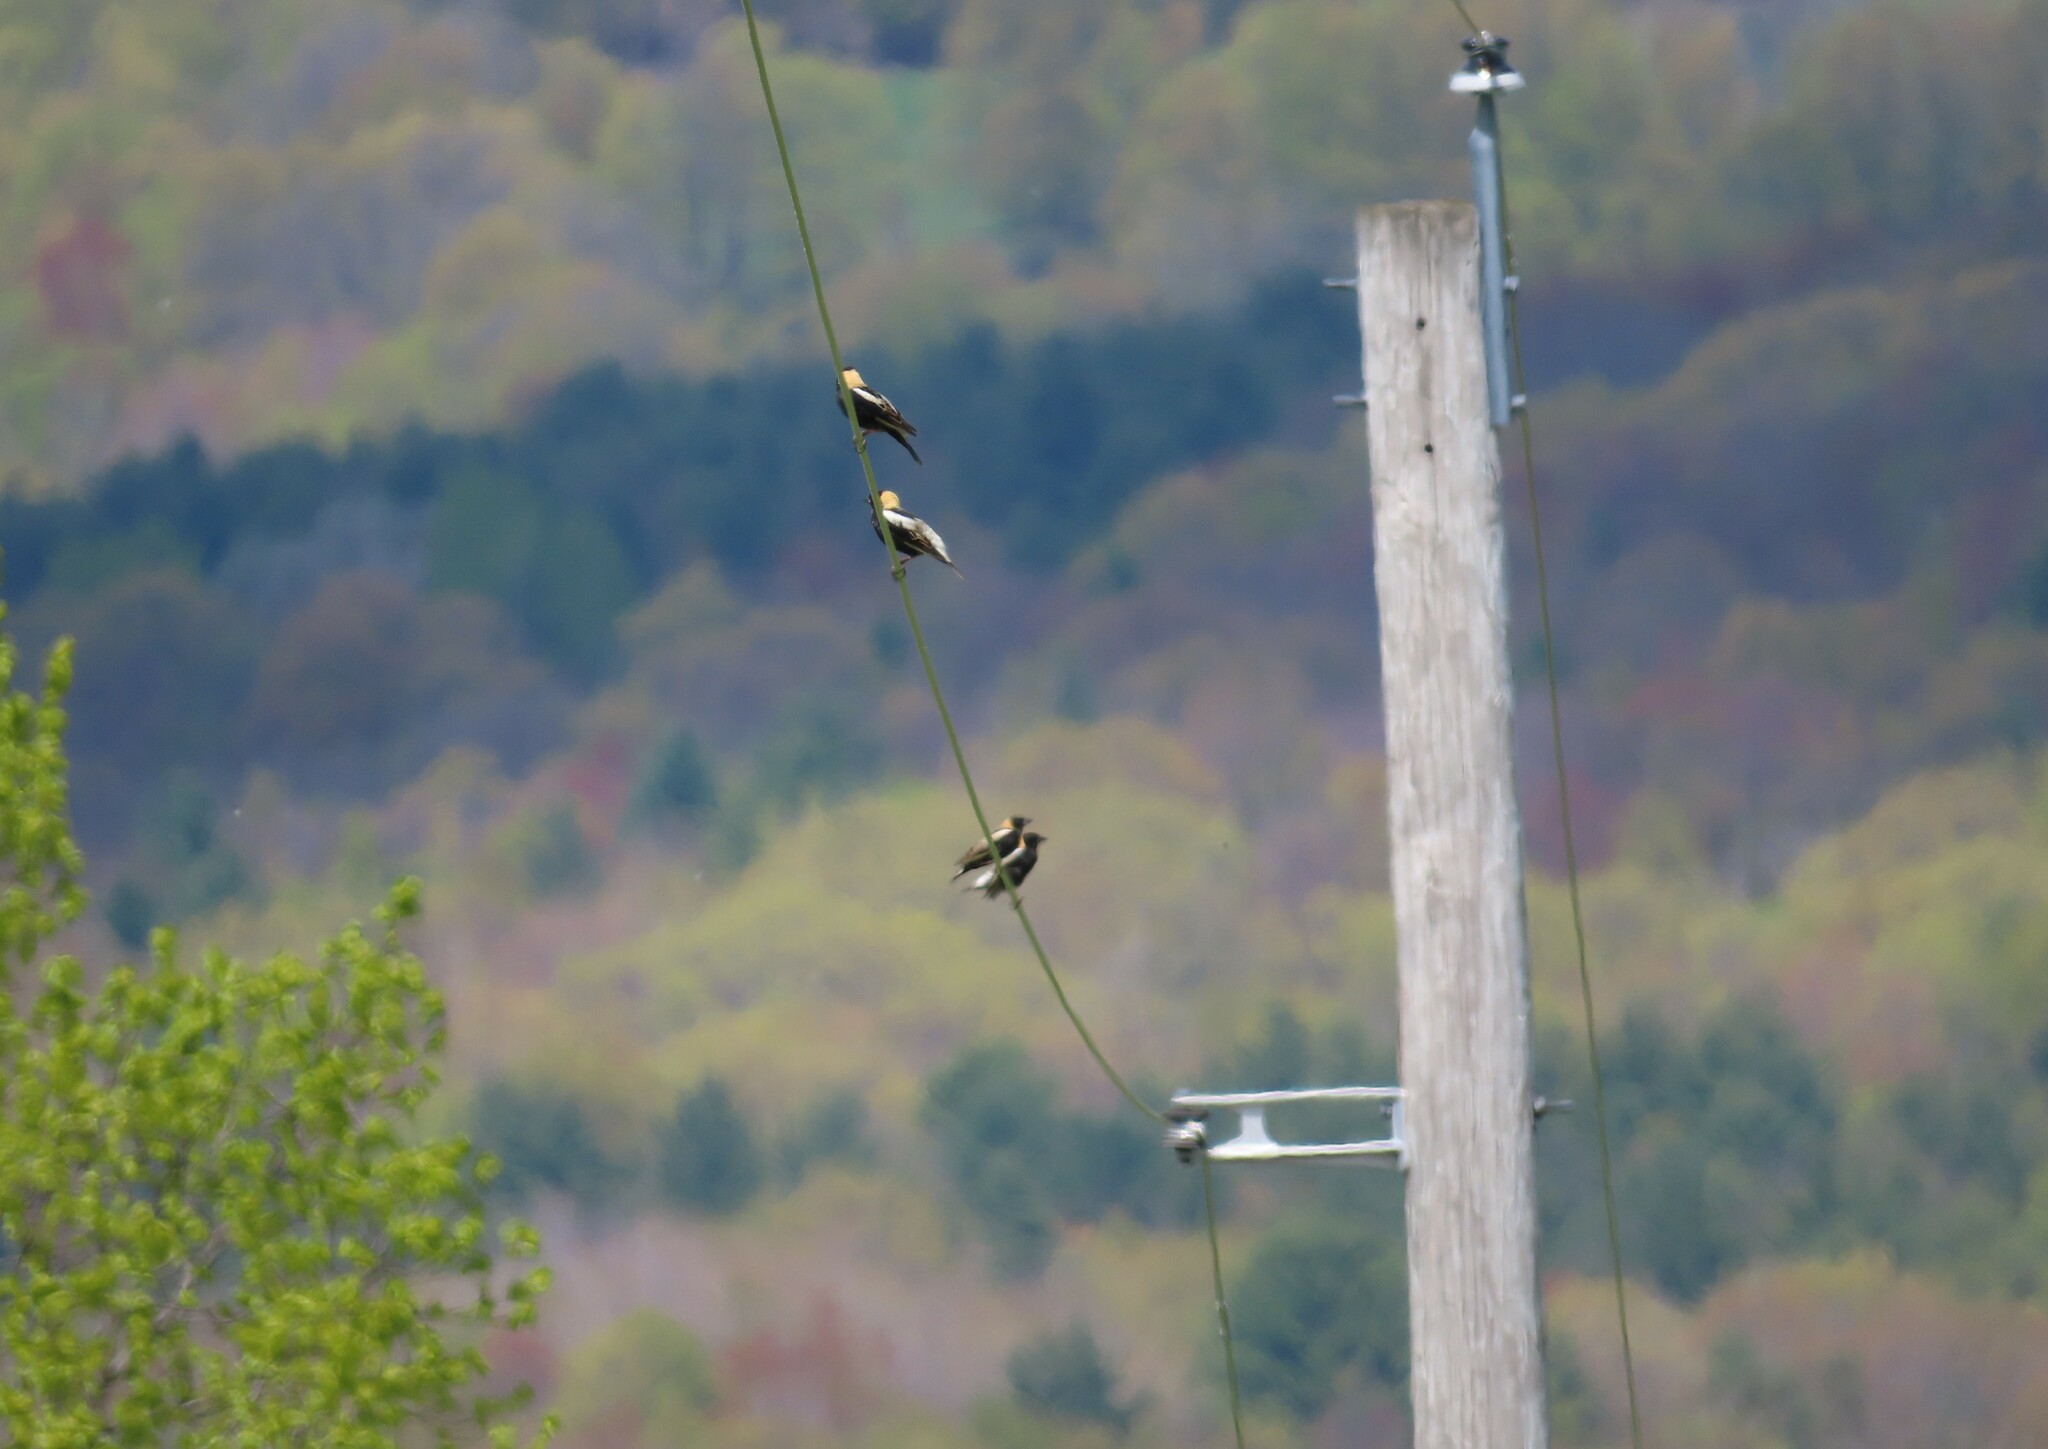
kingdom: Animalia
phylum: Chordata
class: Aves
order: Passeriformes
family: Icteridae
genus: Dolichonyx
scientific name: Dolichonyx oryzivorus
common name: Bobolink
